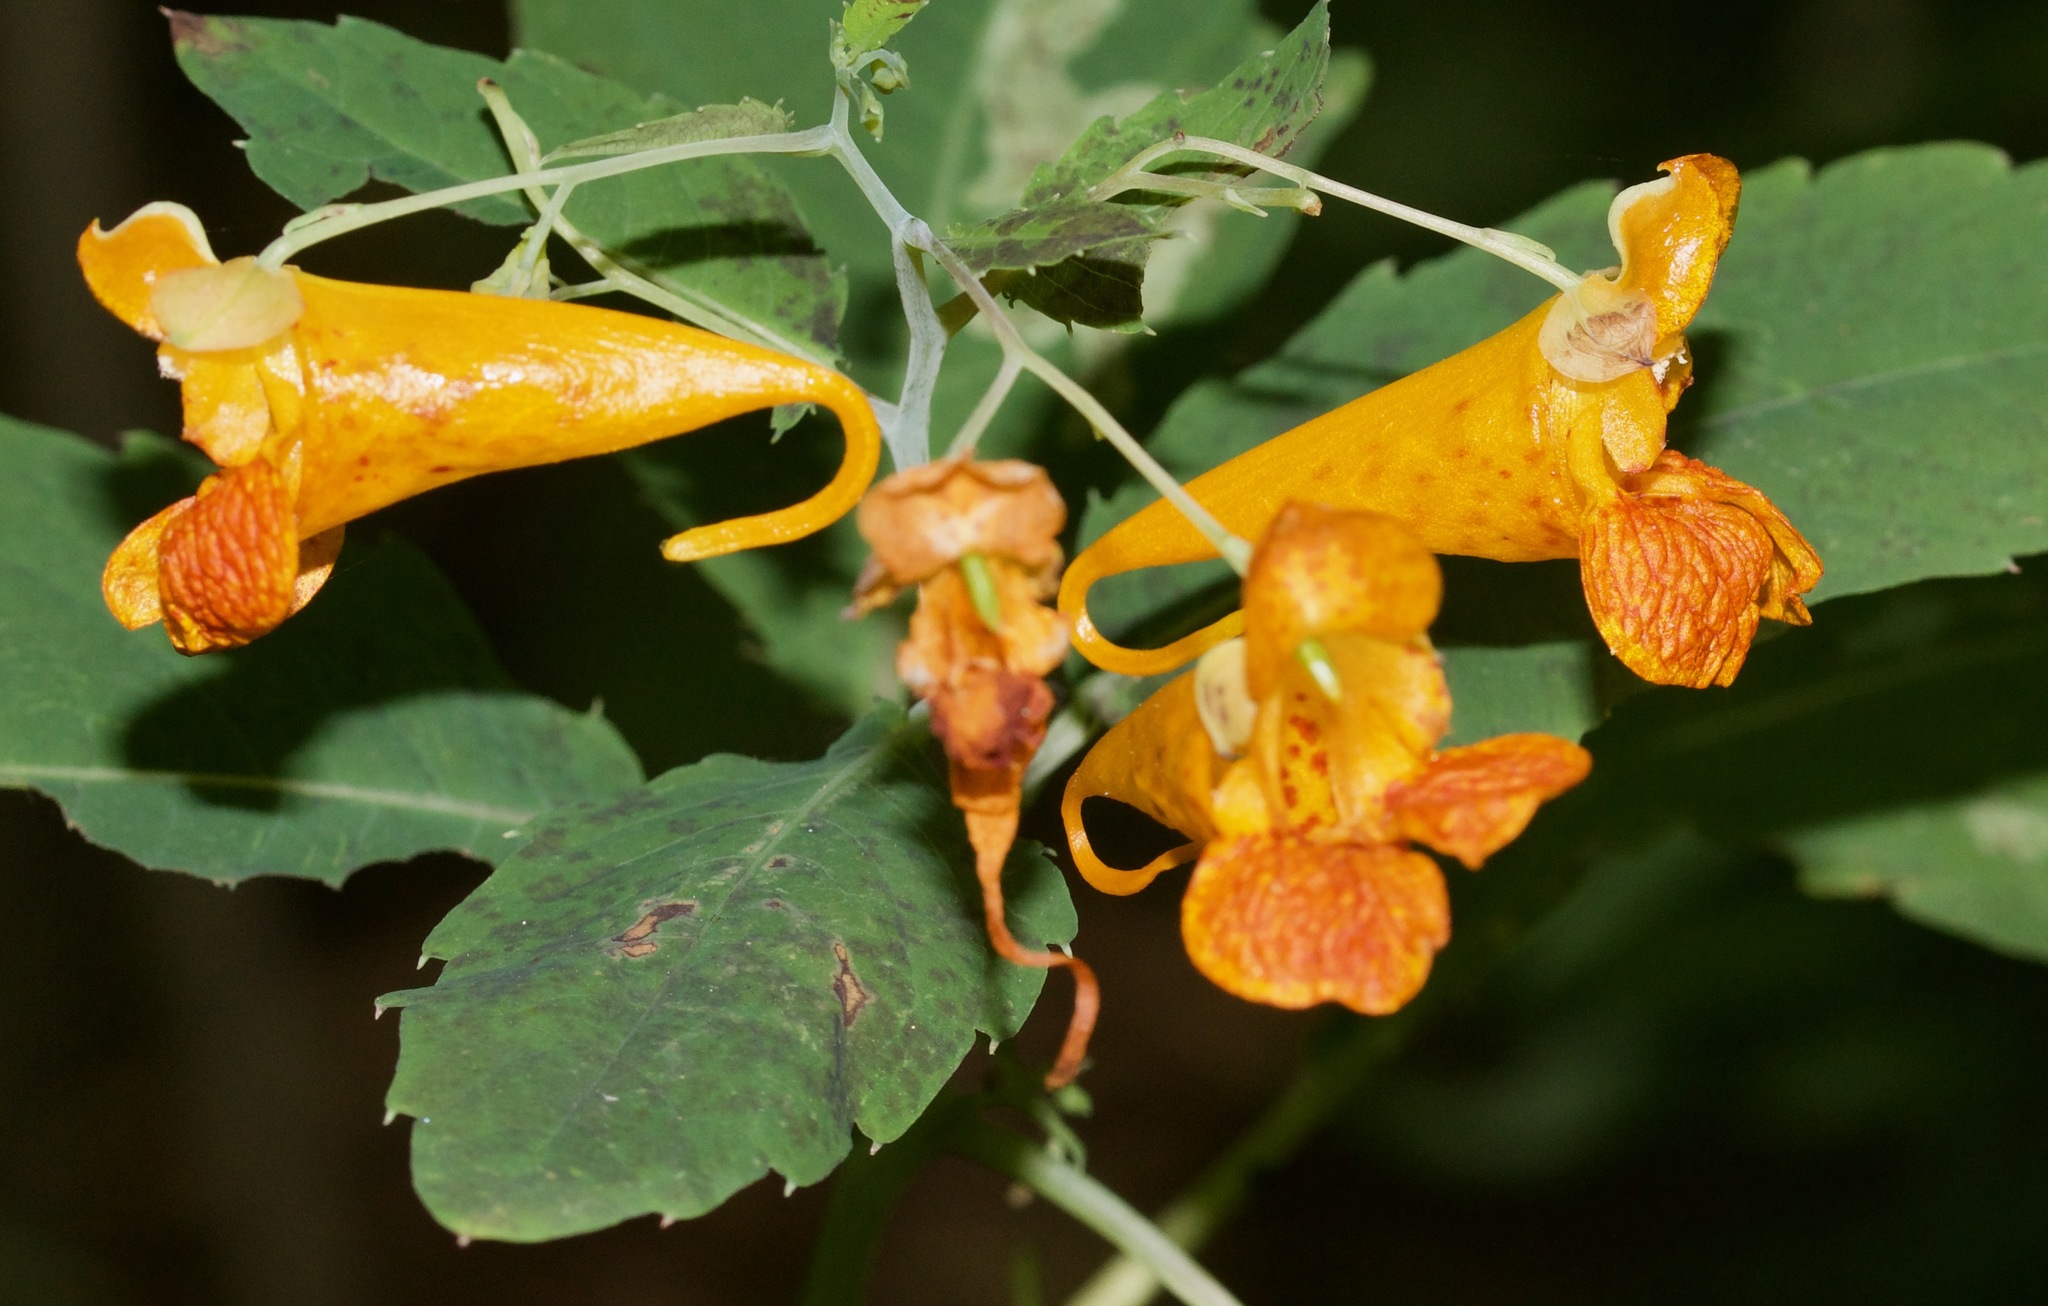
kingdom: Plantae
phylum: Tracheophyta
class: Magnoliopsida
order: Ericales
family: Balsaminaceae
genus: Impatiens
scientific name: Impatiens capensis
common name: Orange balsam
